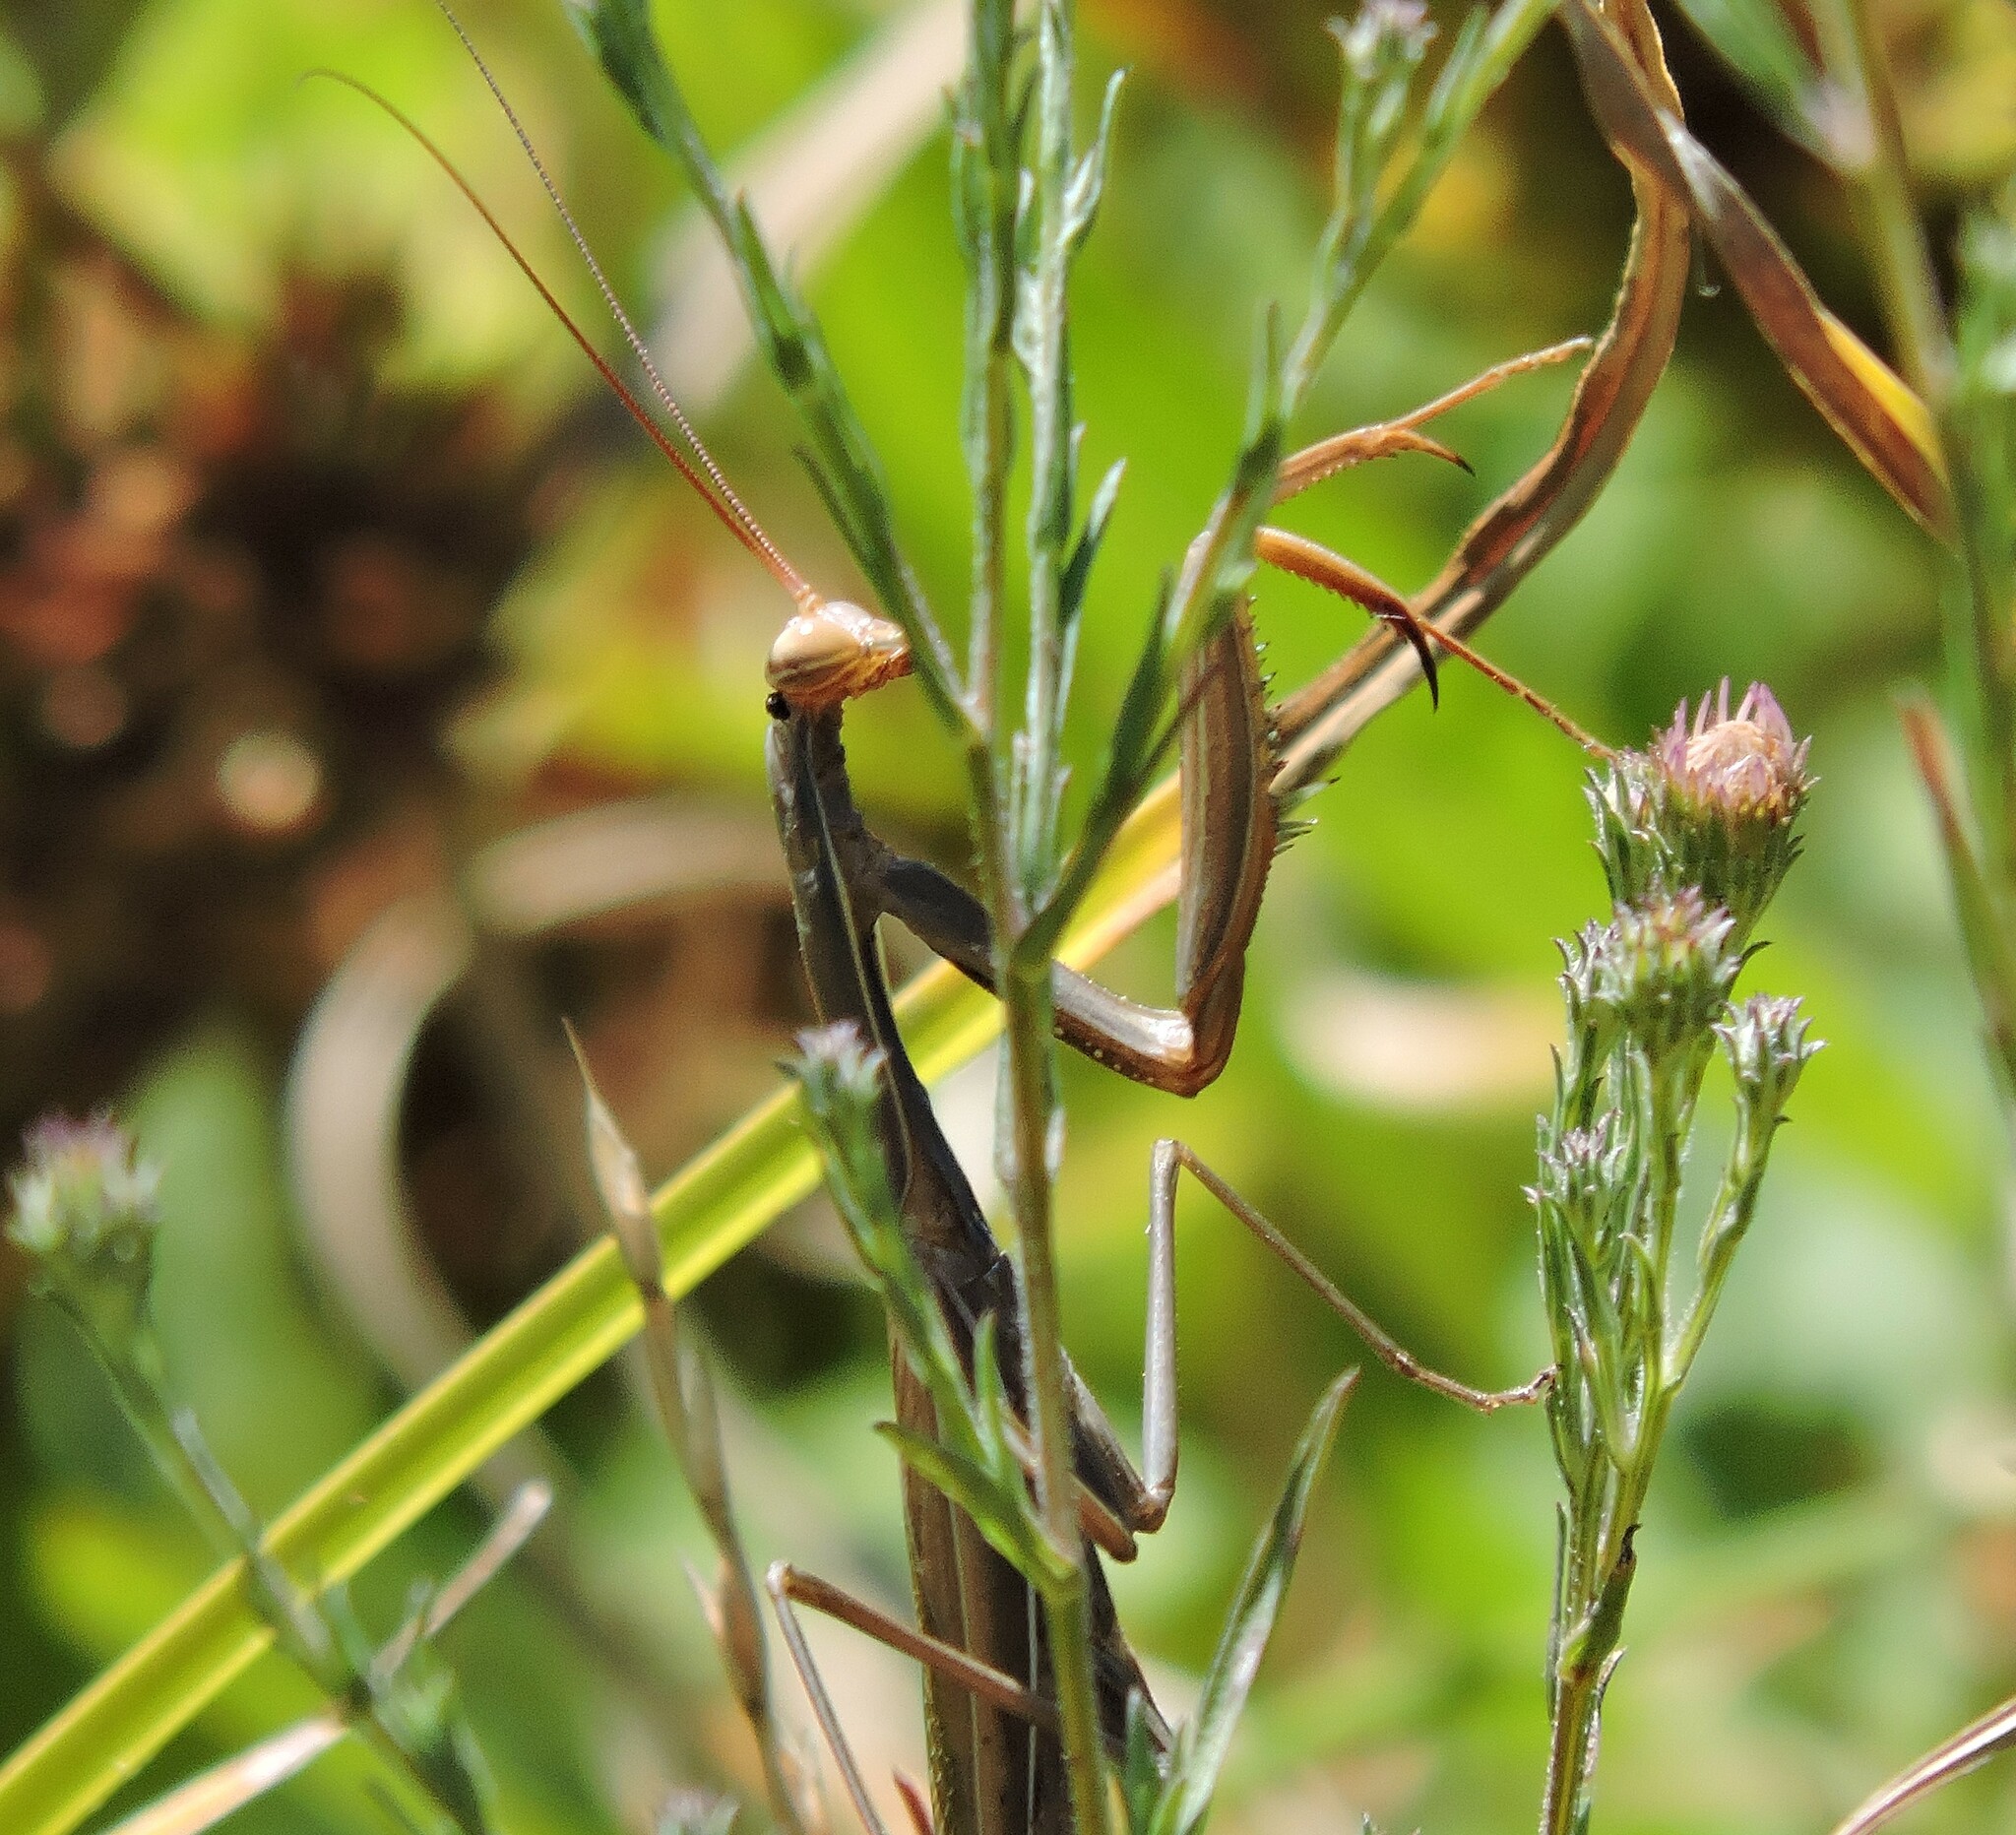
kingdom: Animalia
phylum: Arthropoda
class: Insecta
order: Mantodea
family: Mantidae
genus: Mantis
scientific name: Mantis religiosa
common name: Praying mantis
